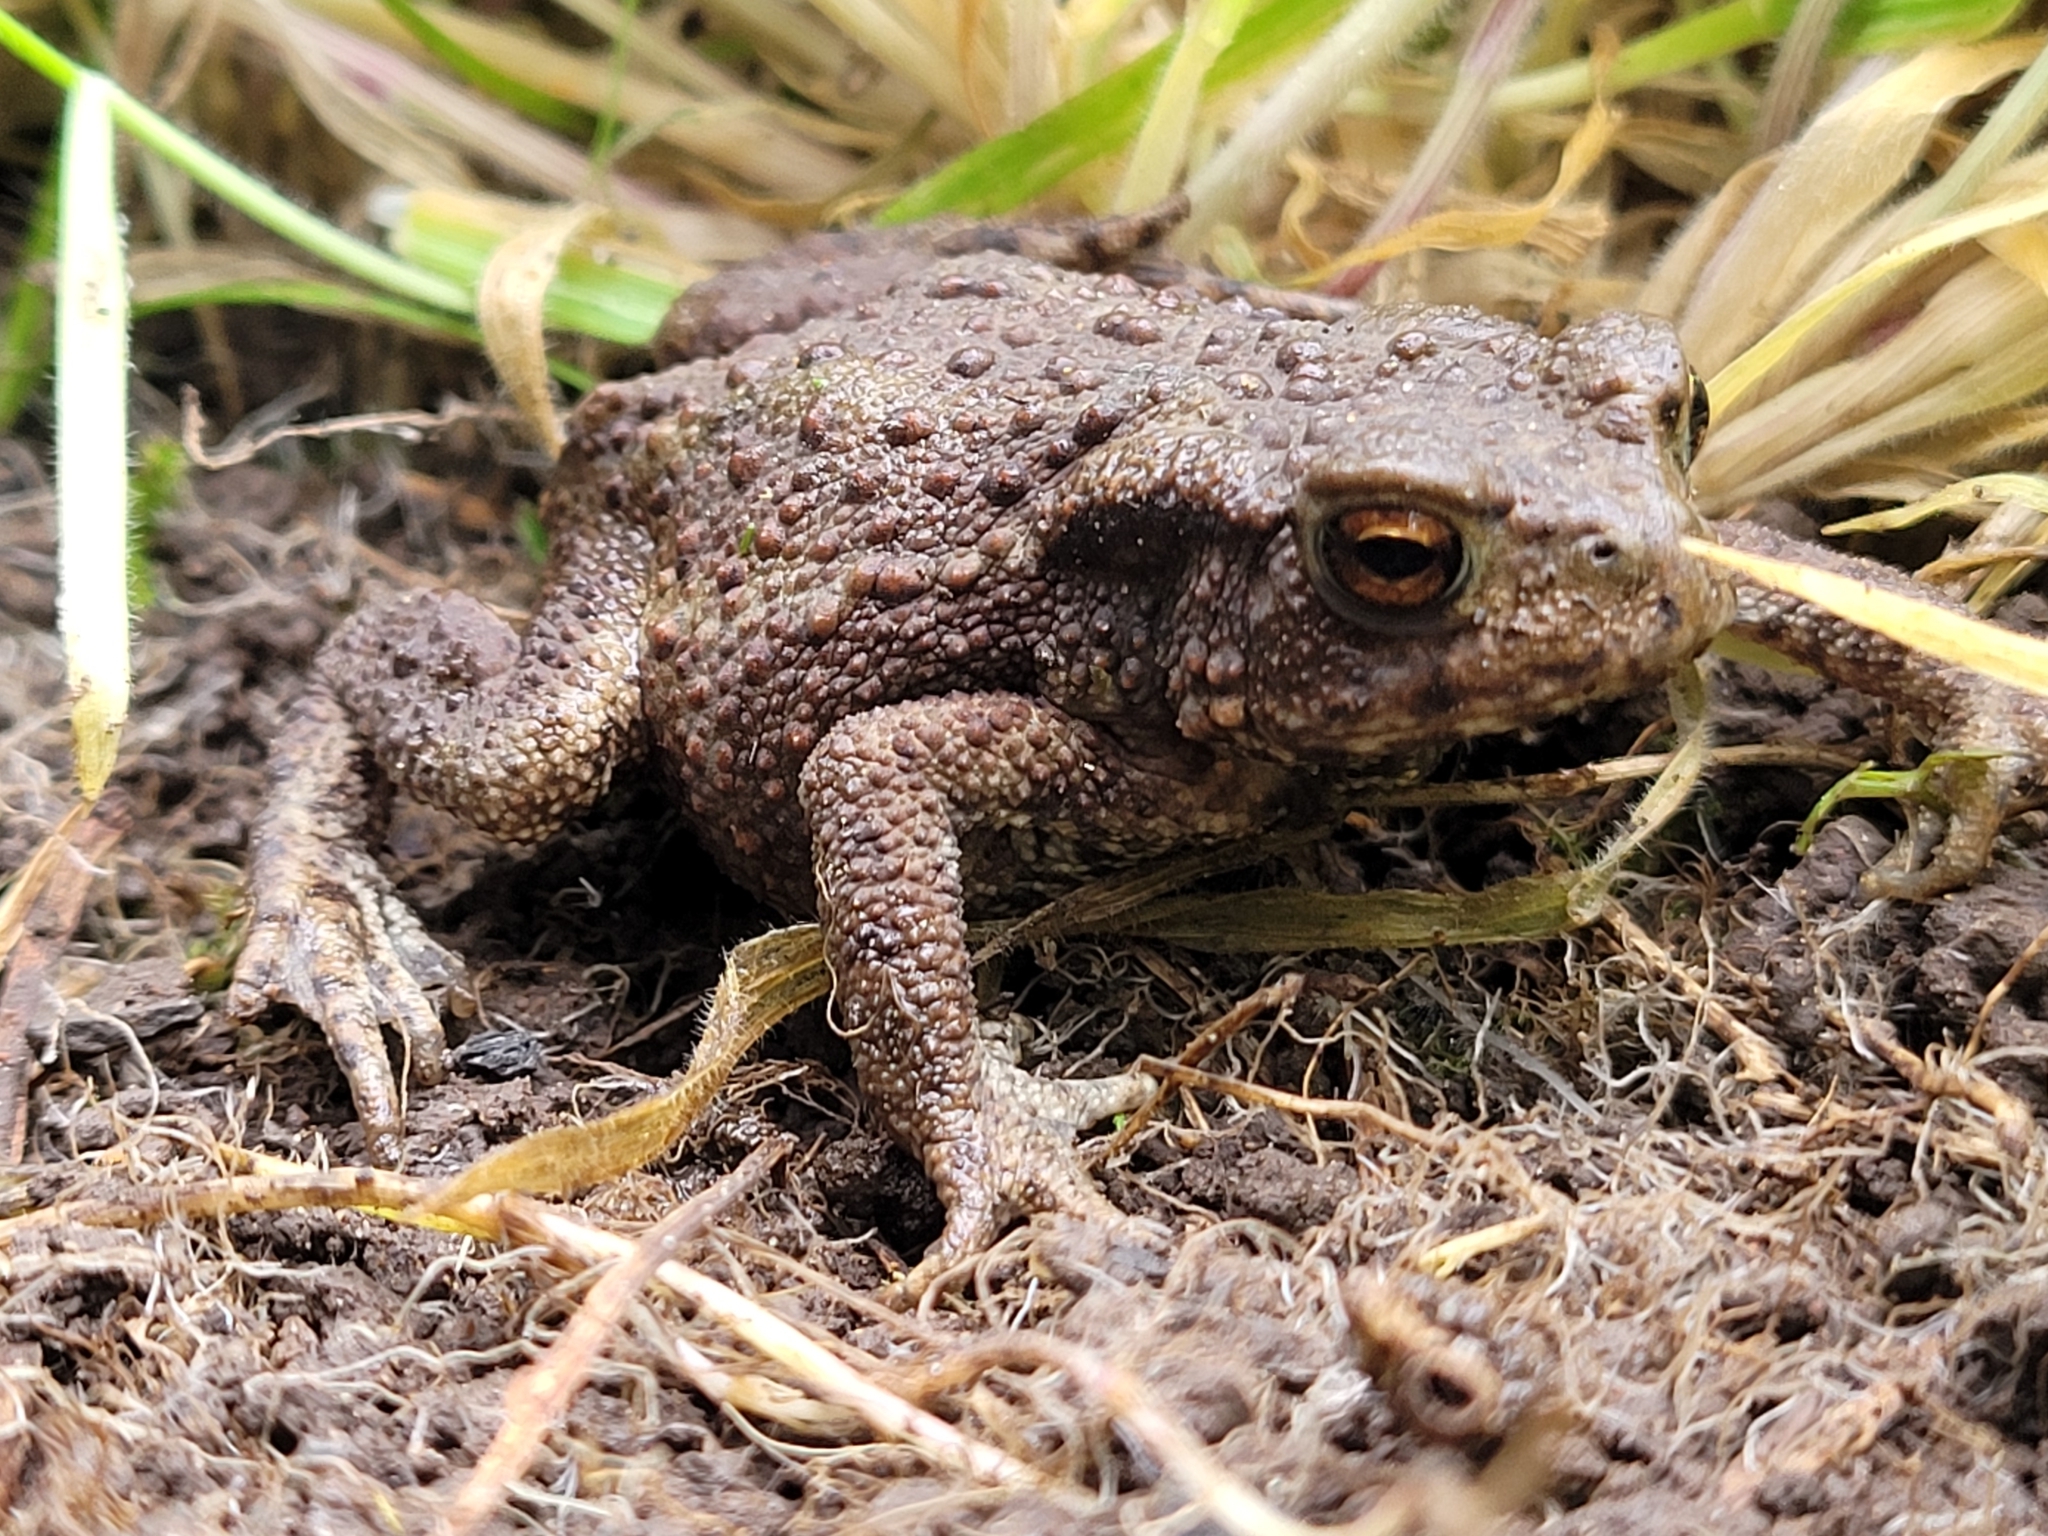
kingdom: Animalia
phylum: Chordata
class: Amphibia
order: Anura
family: Bufonidae
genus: Bufo
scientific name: Bufo bufo
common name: Common toad
